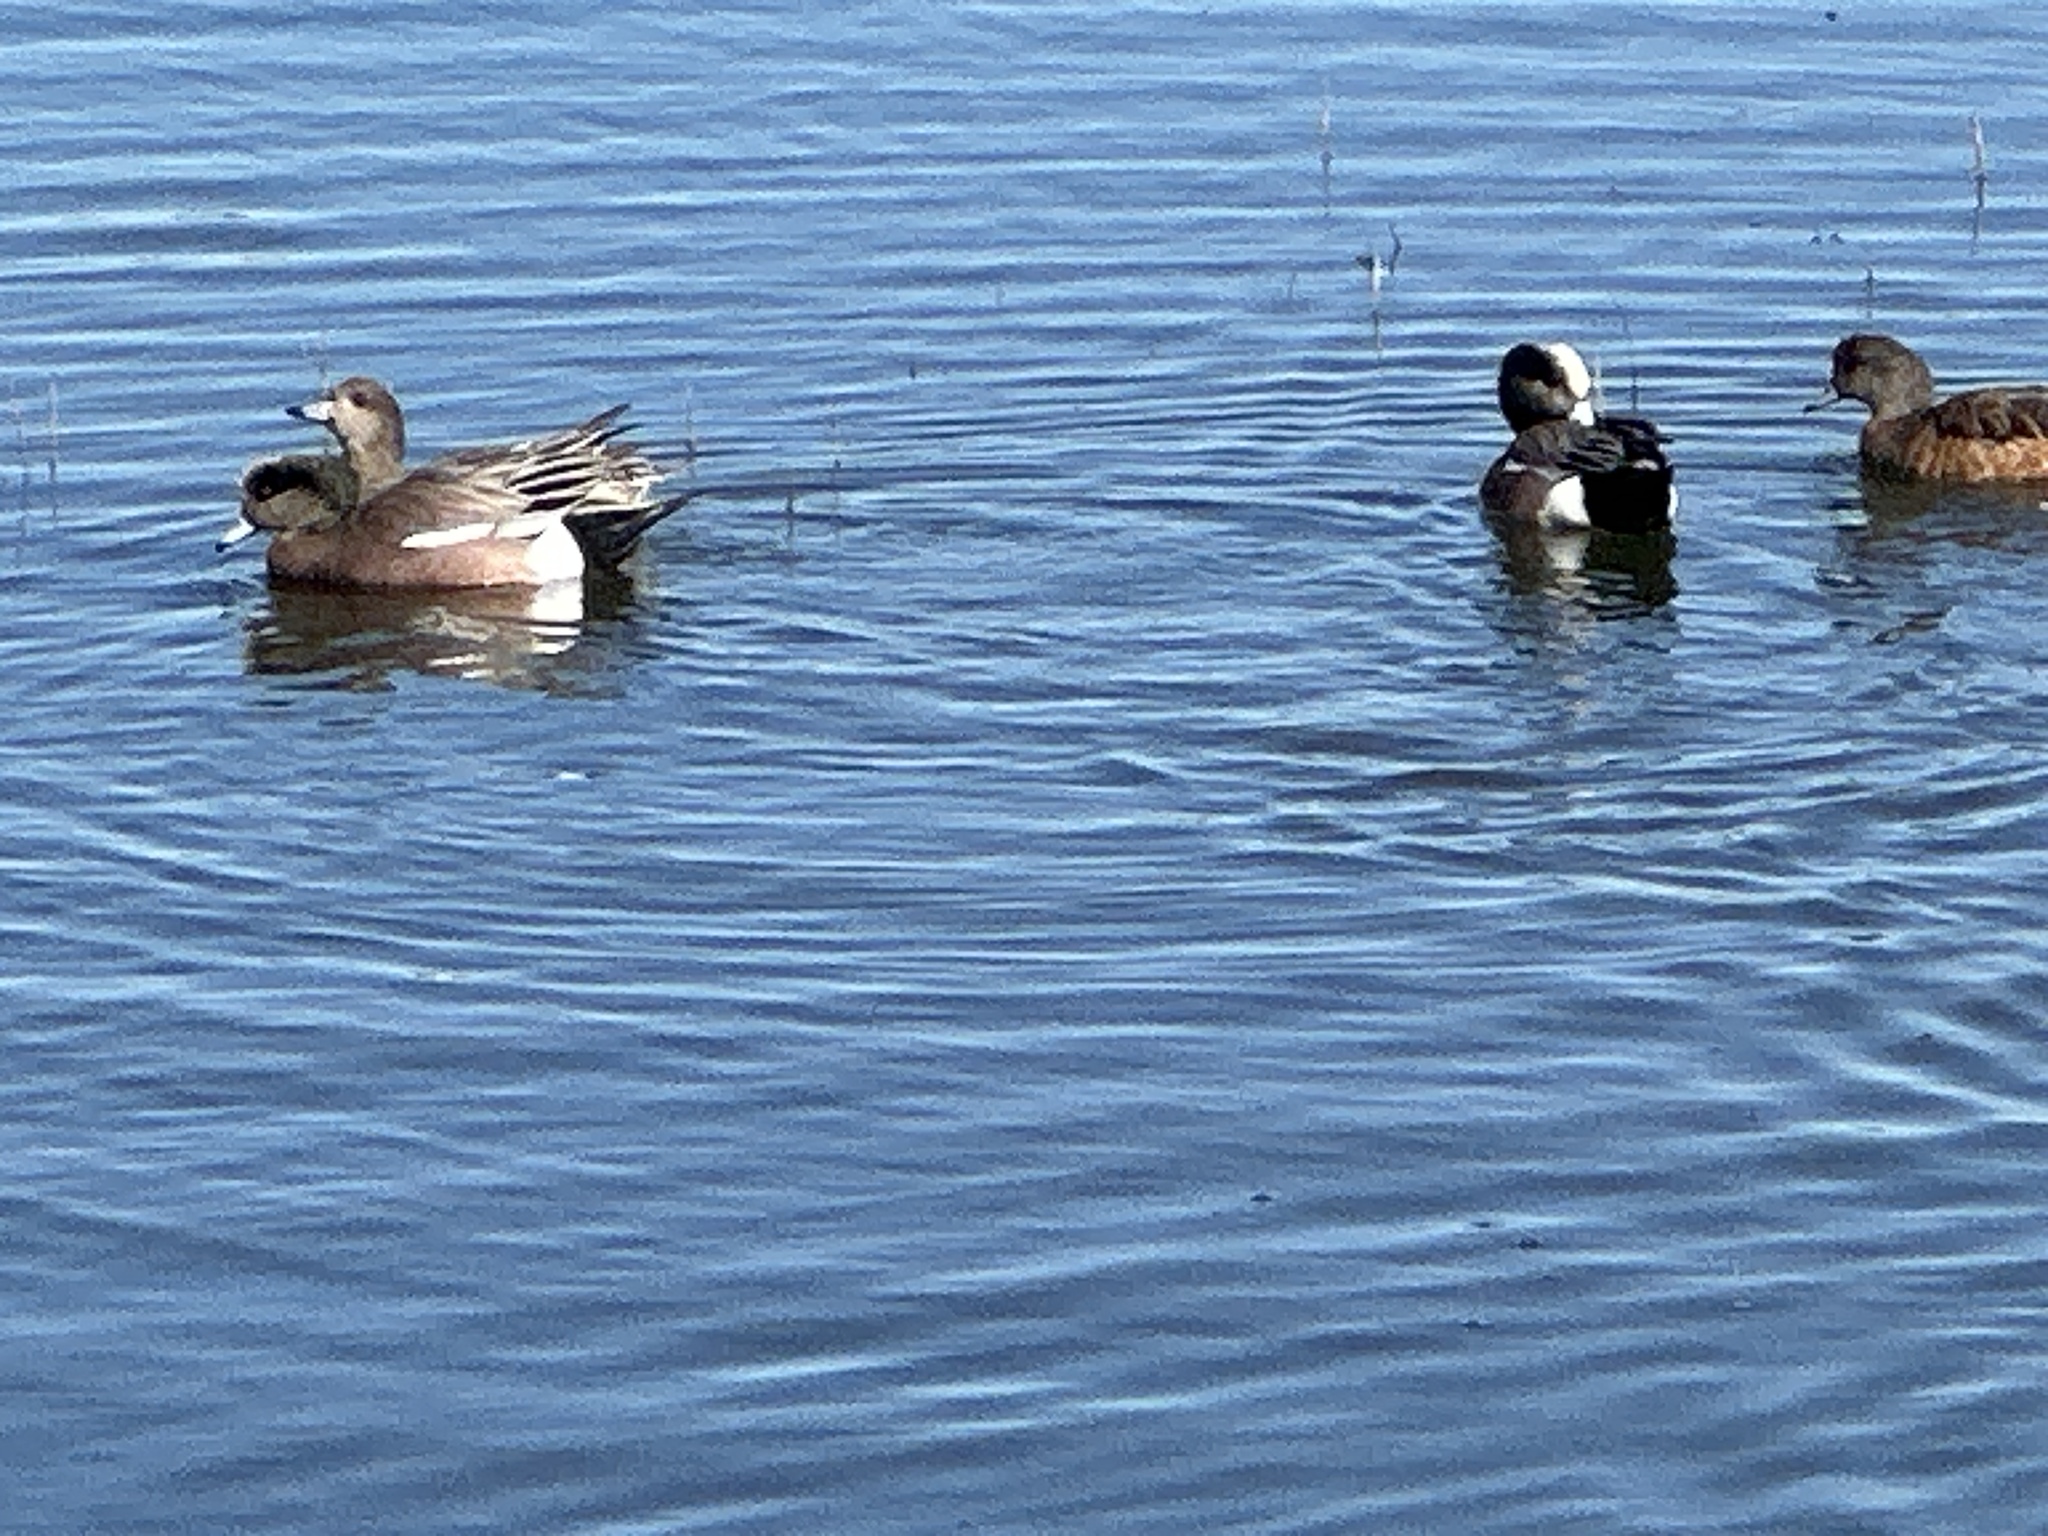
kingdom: Animalia
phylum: Chordata
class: Aves
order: Anseriformes
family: Anatidae
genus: Mareca
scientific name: Mareca americana
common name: American wigeon
